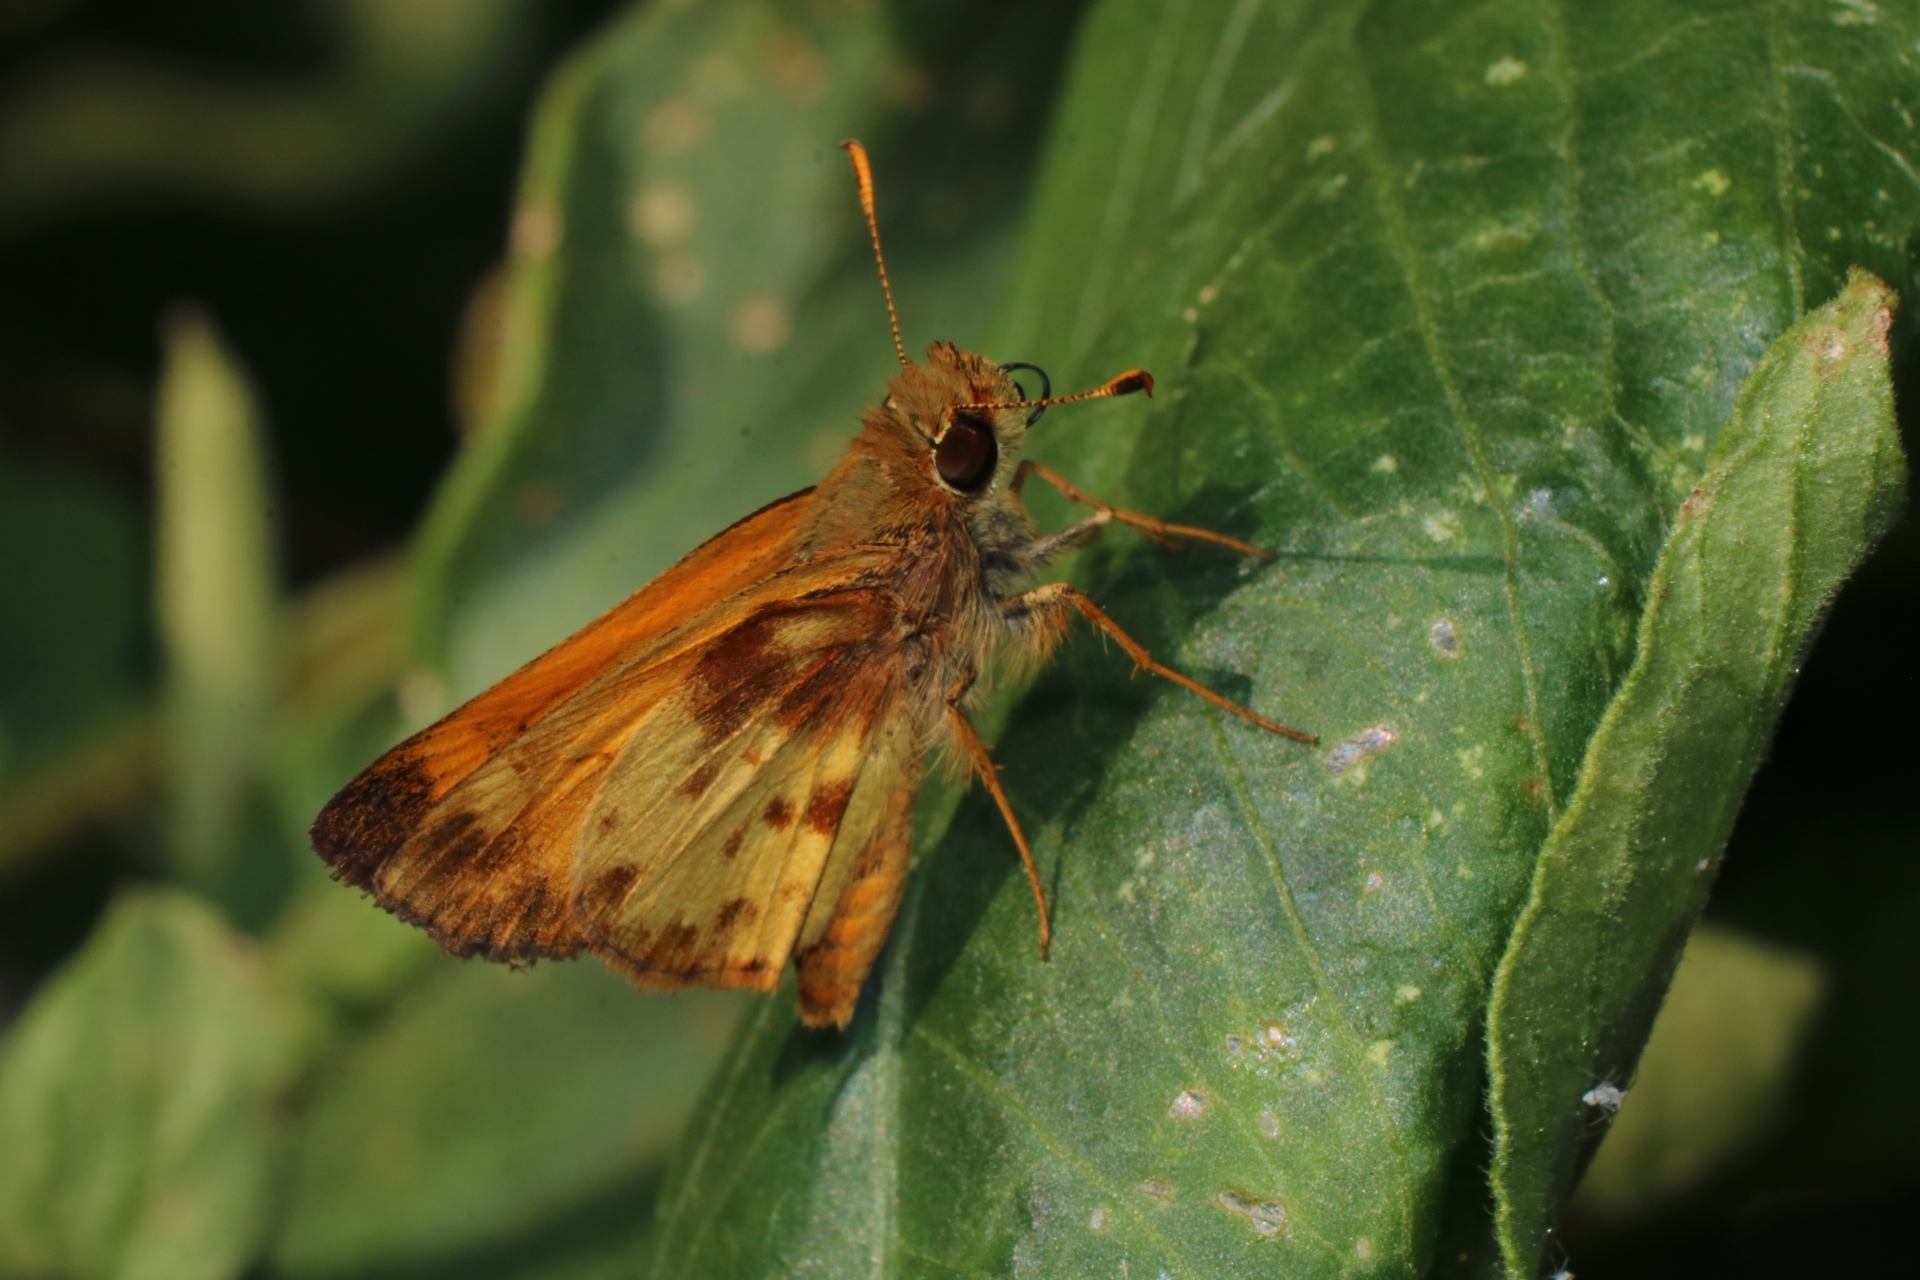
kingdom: Animalia
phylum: Arthropoda
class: Insecta
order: Lepidoptera
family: Hesperiidae
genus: Lon
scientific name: Lon zabulon
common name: Zabulon skipper
